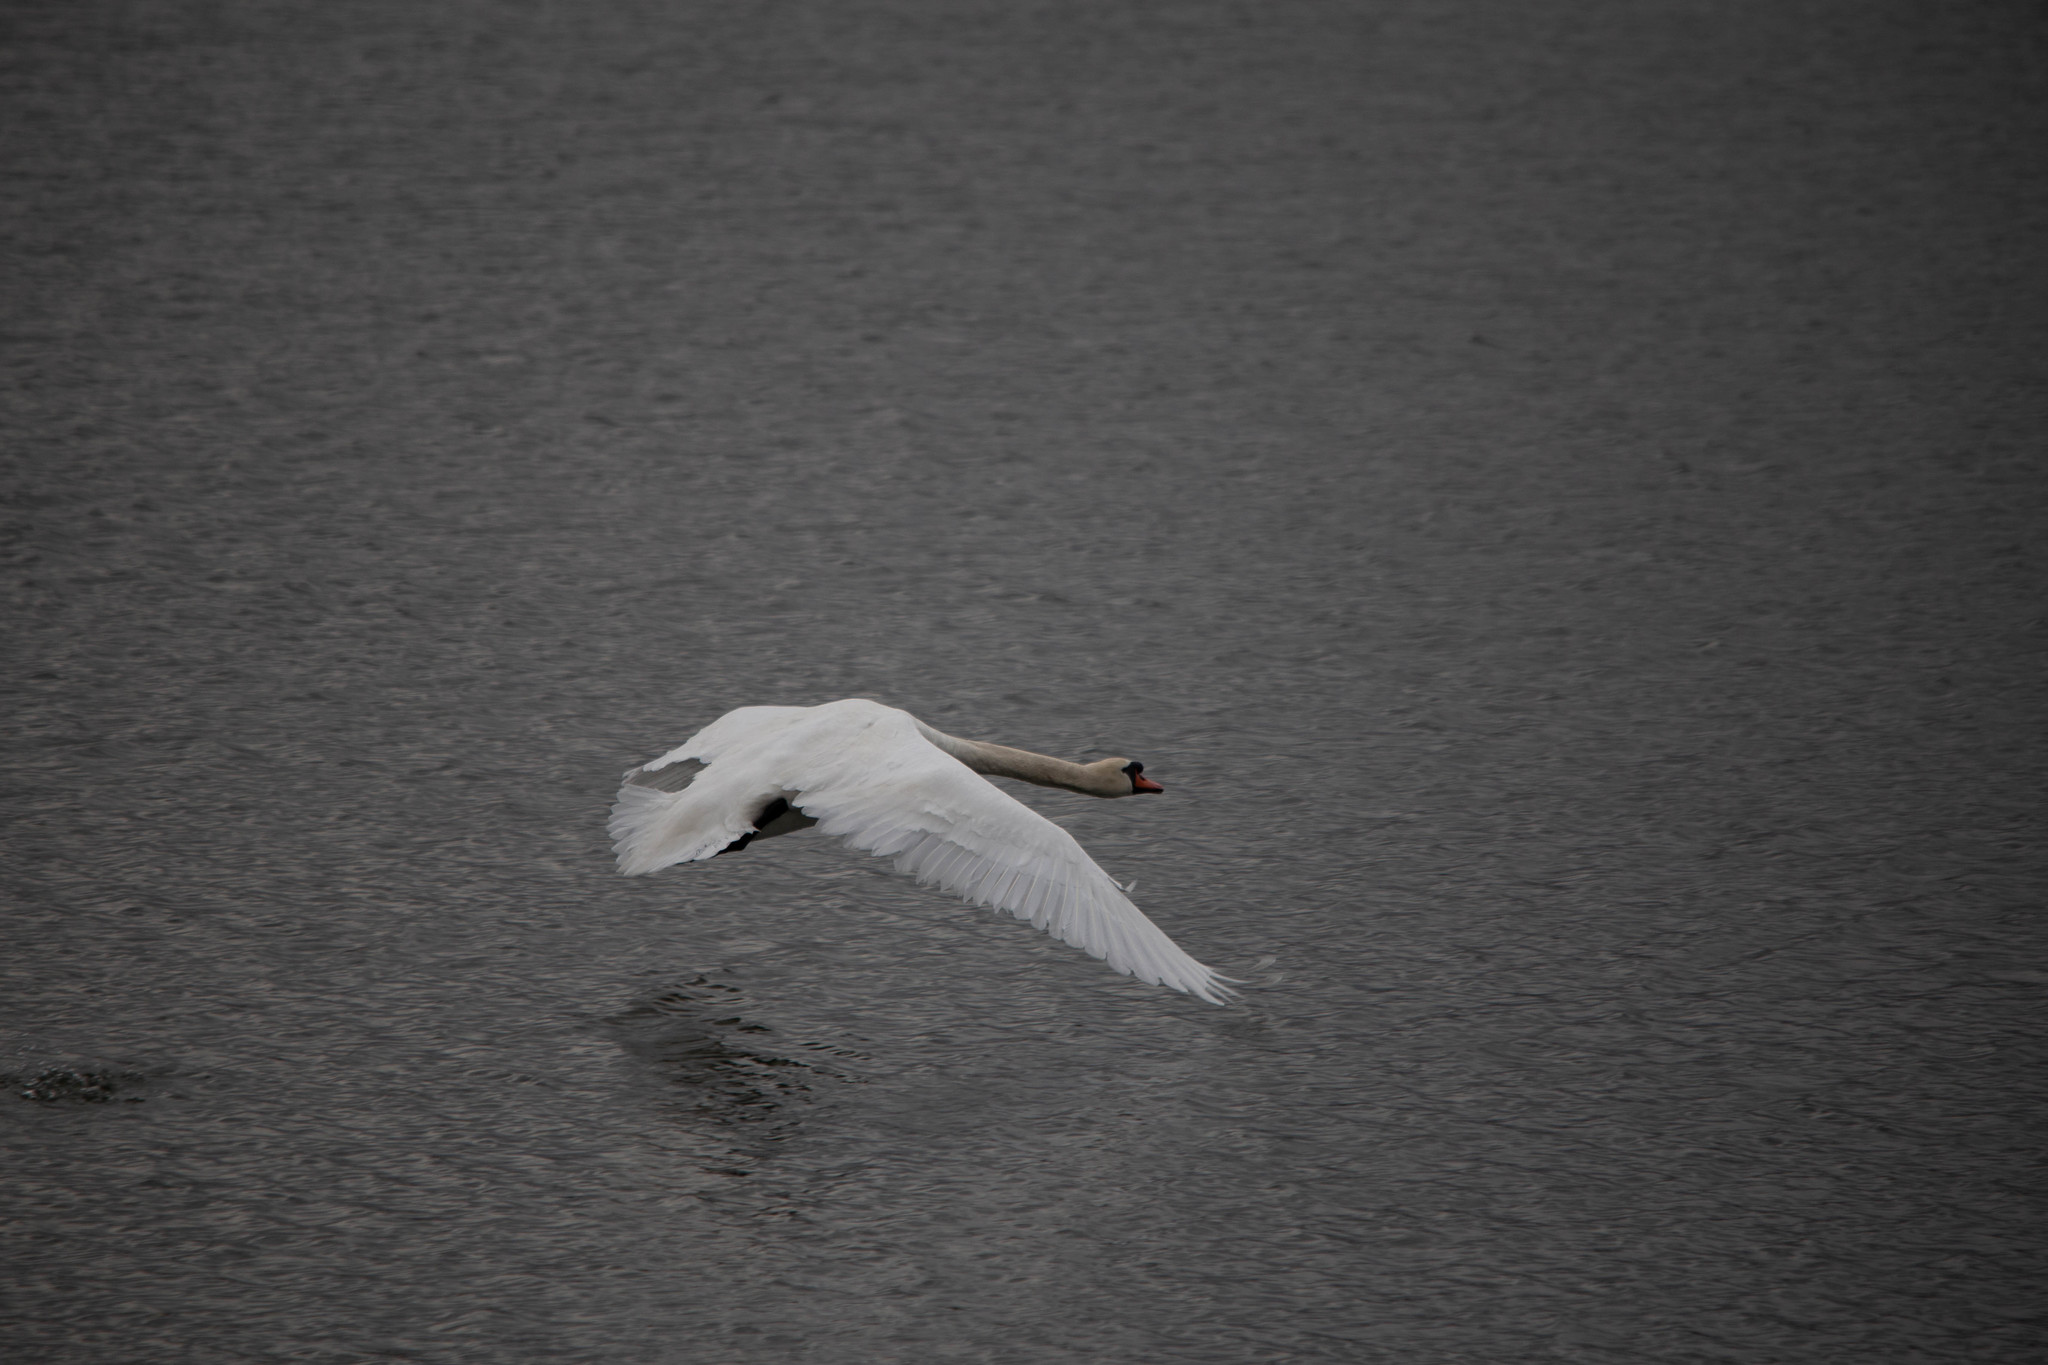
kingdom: Animalia
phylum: Chordata
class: Aves
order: Anseriformes
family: Anatidae
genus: Cygnus
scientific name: Cygnus olor
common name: Mute swan
